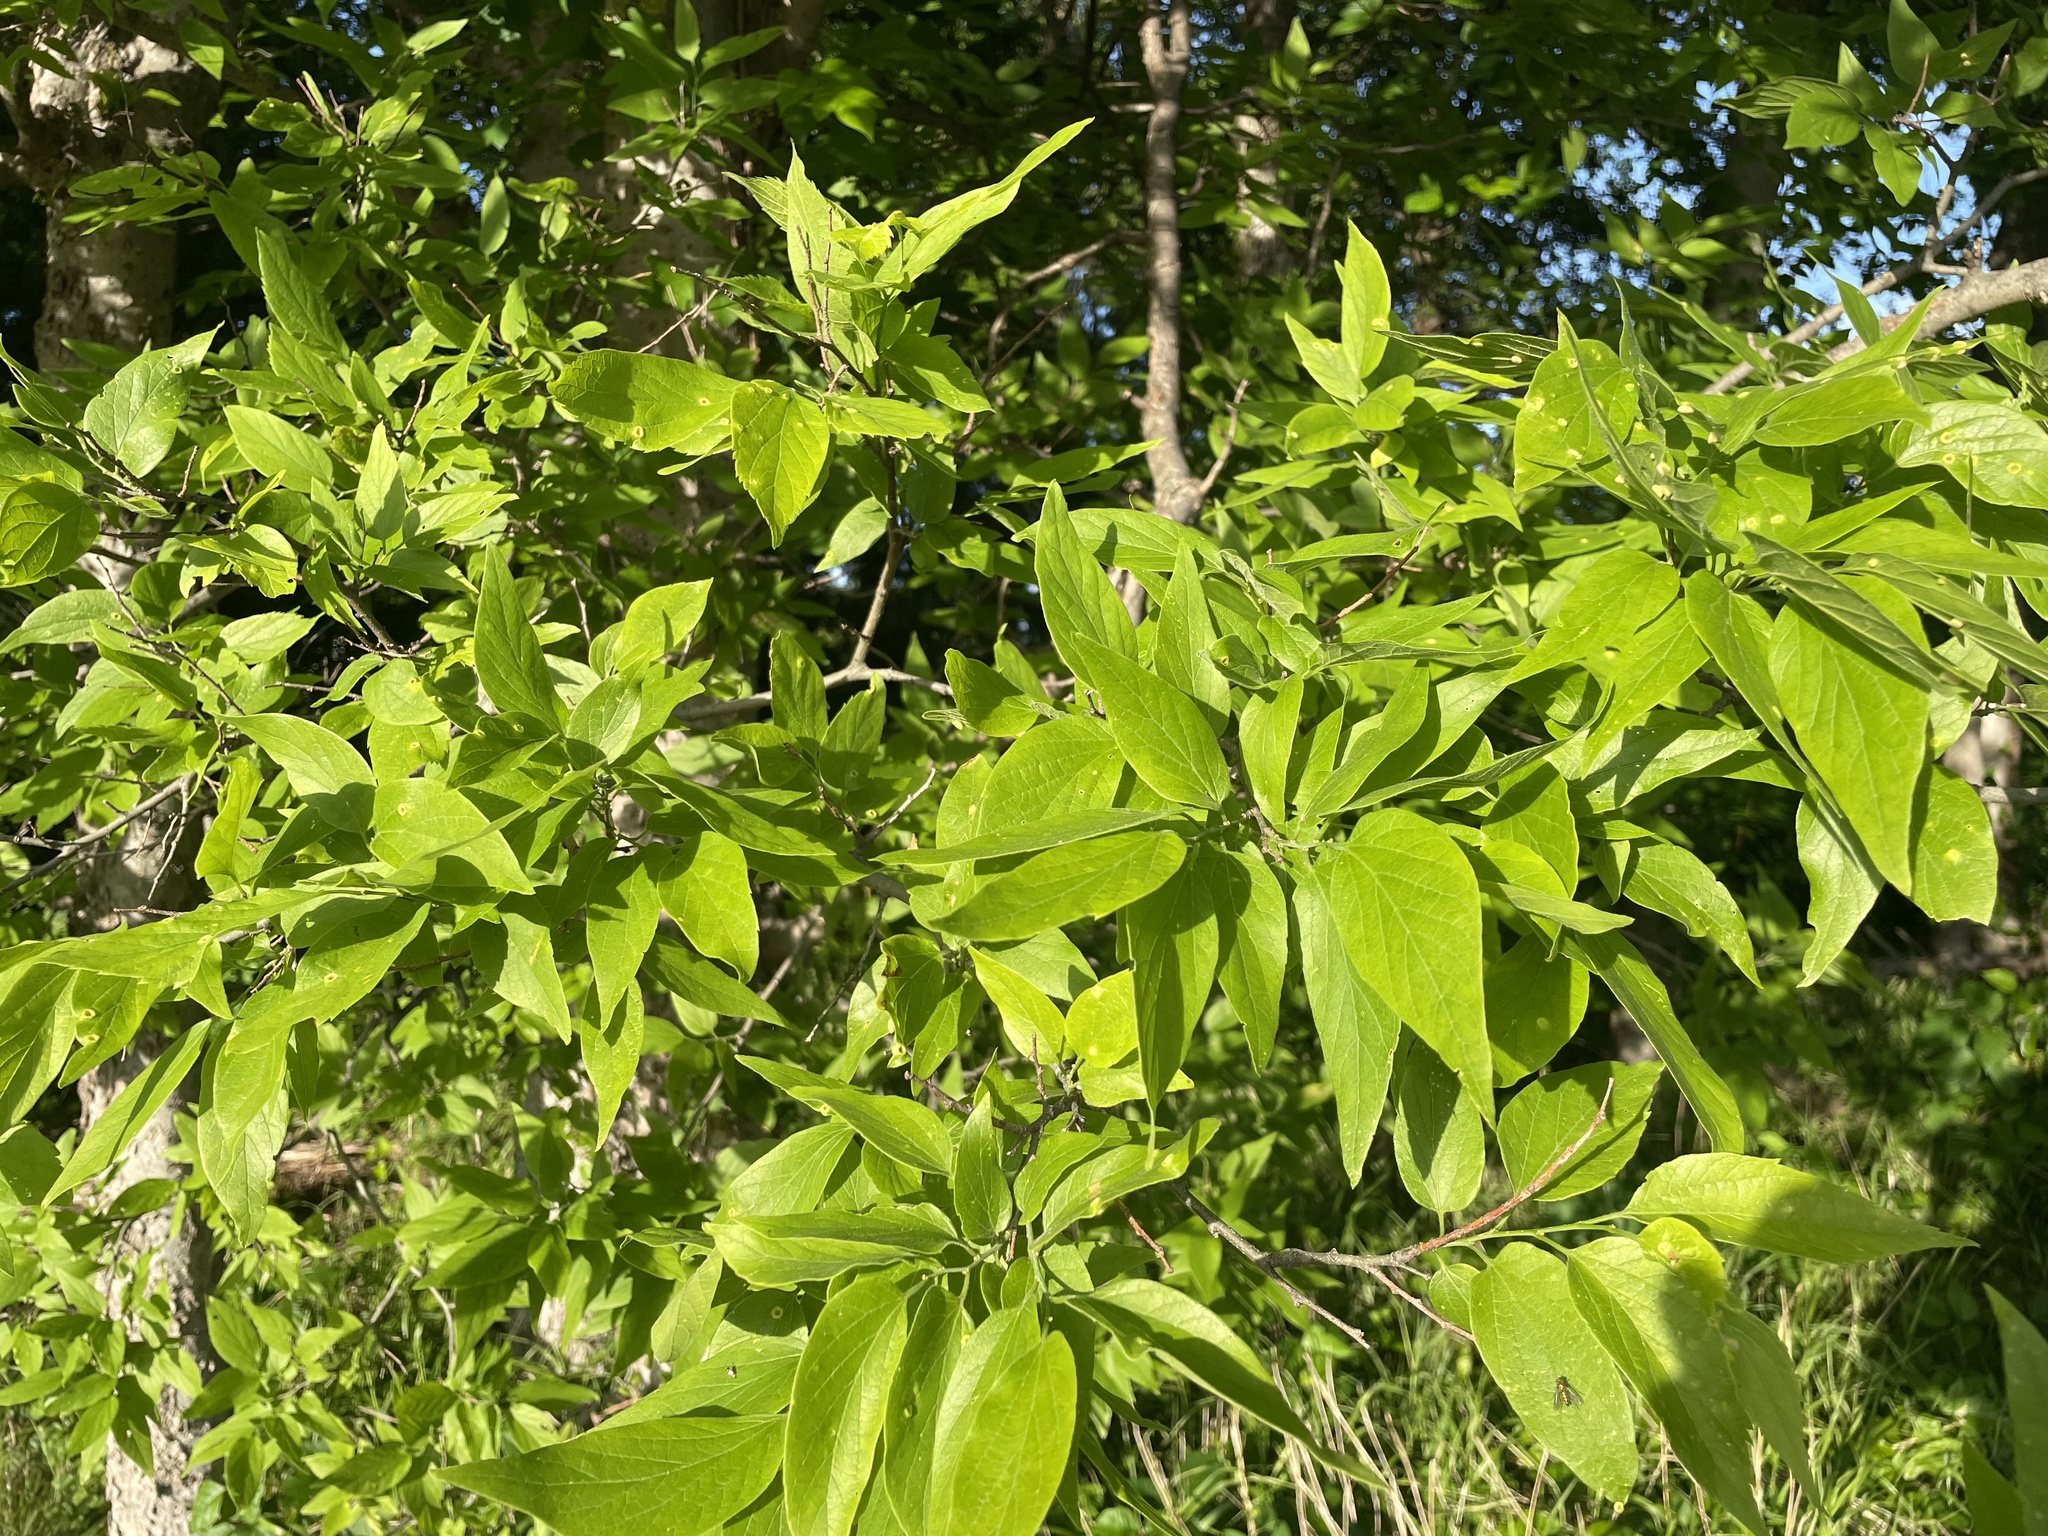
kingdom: Plantae
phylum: Tracheophyta
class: Magnoliopsida
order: Rosales
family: Cannabaceae
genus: Celtis
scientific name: Celtis laevigata
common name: Sugarberry
